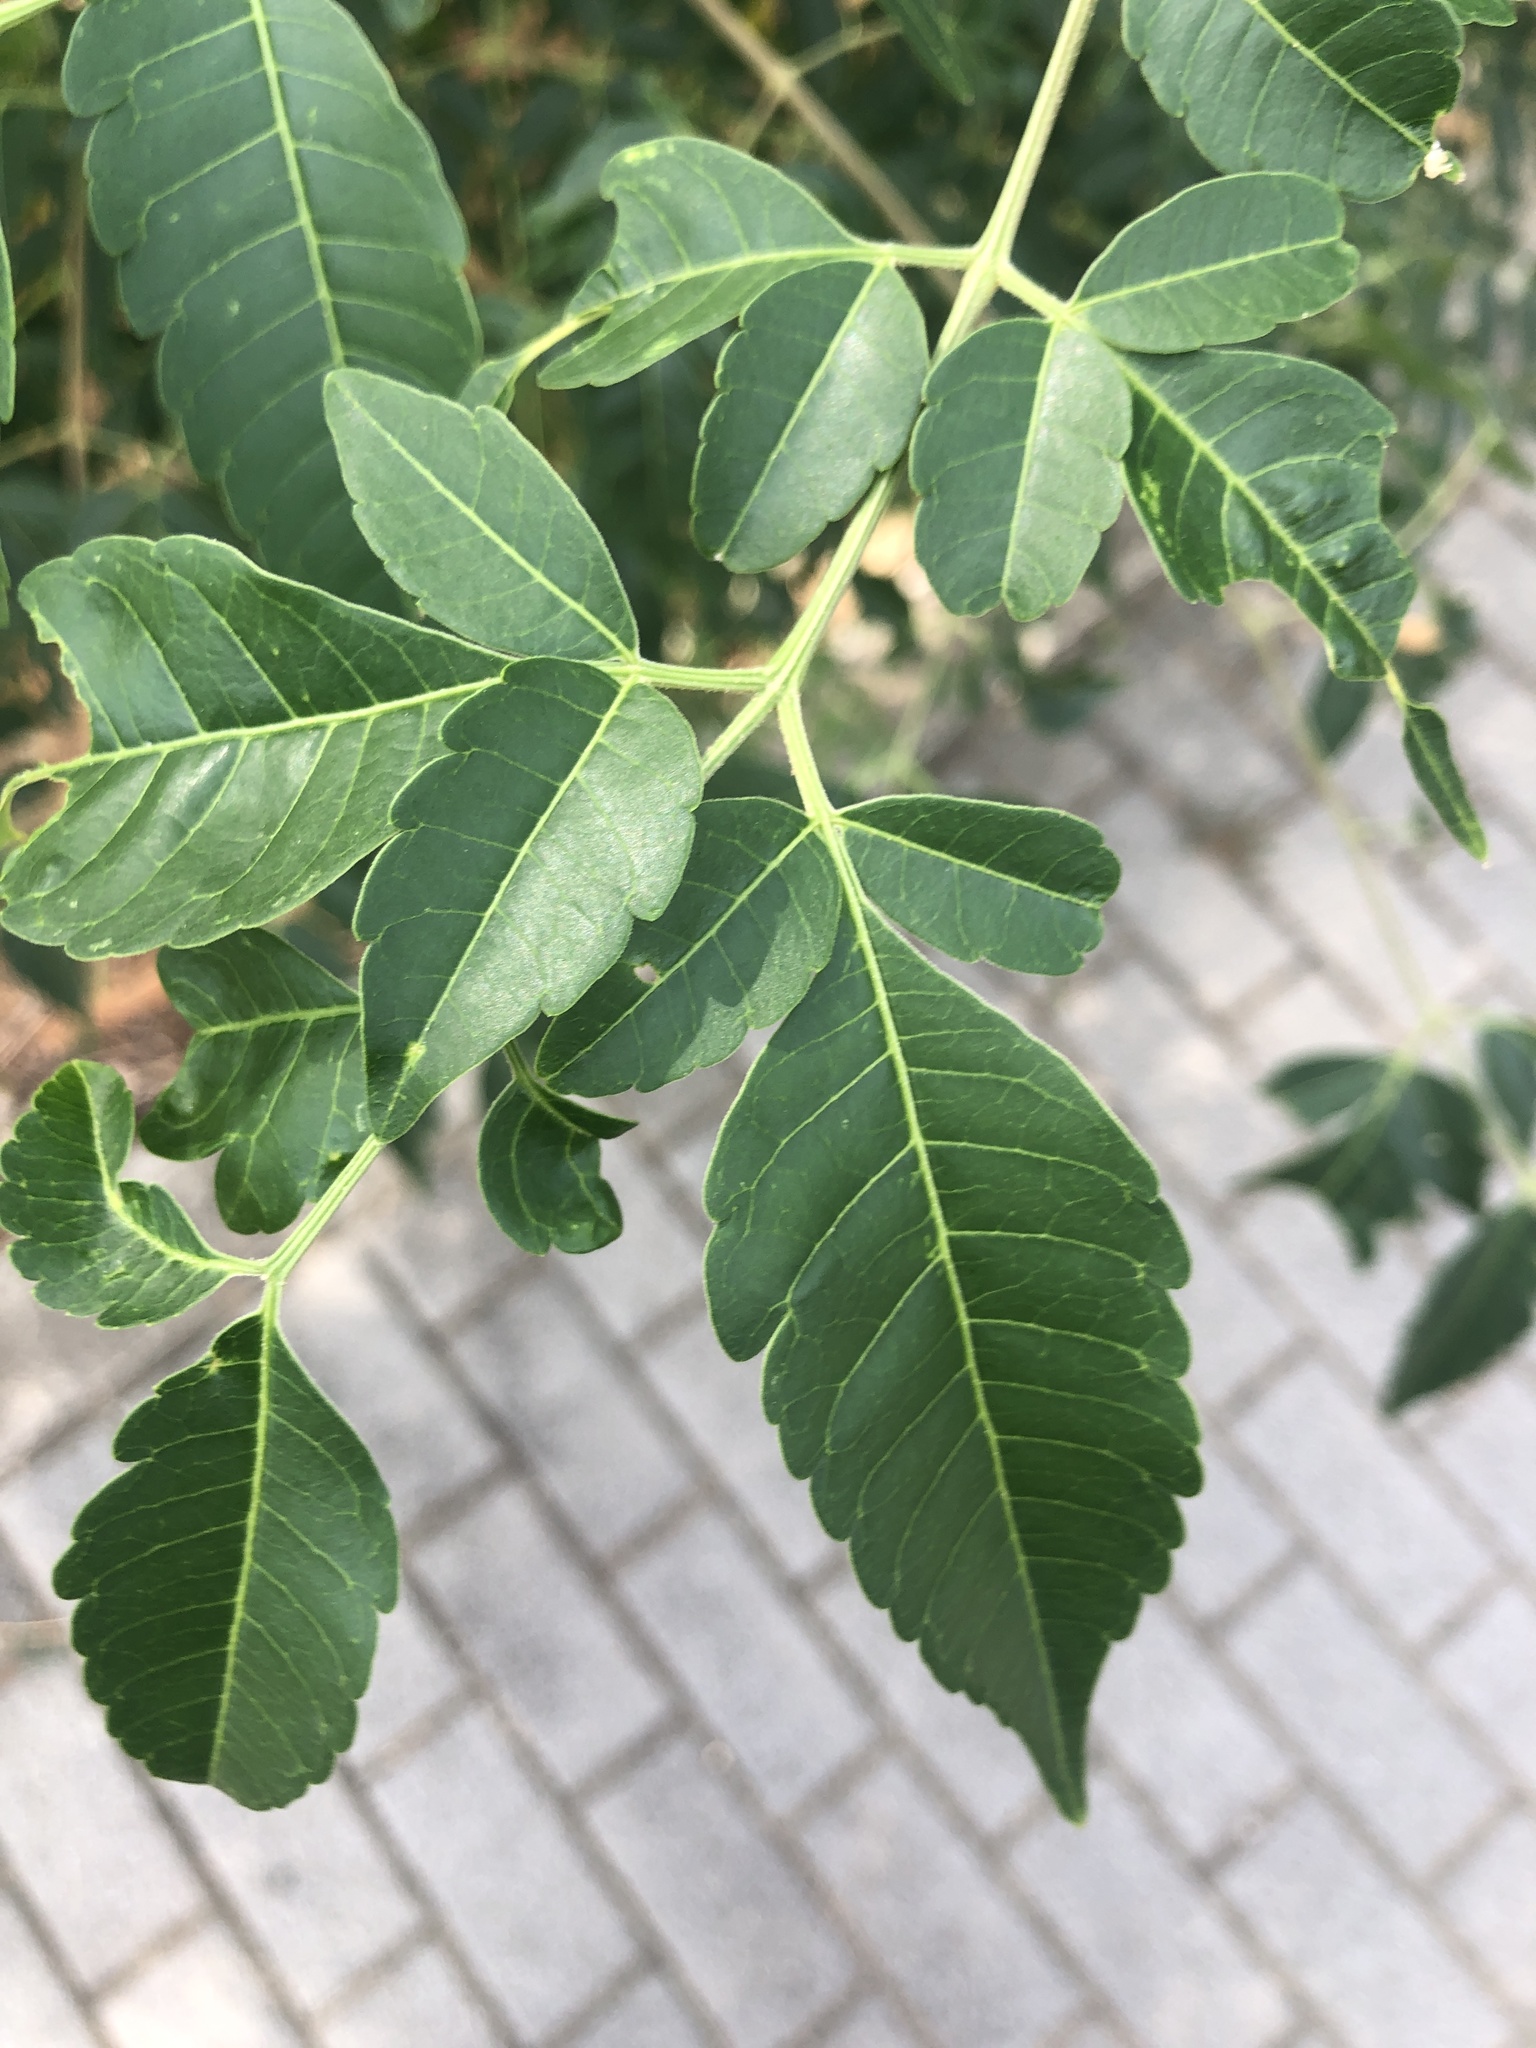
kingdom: Plantae
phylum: Tracheophyta
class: Magnoliopsida
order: Sapindales
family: Meliaceae
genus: Melia
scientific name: Melia azedarach
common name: Chinaberrytree
